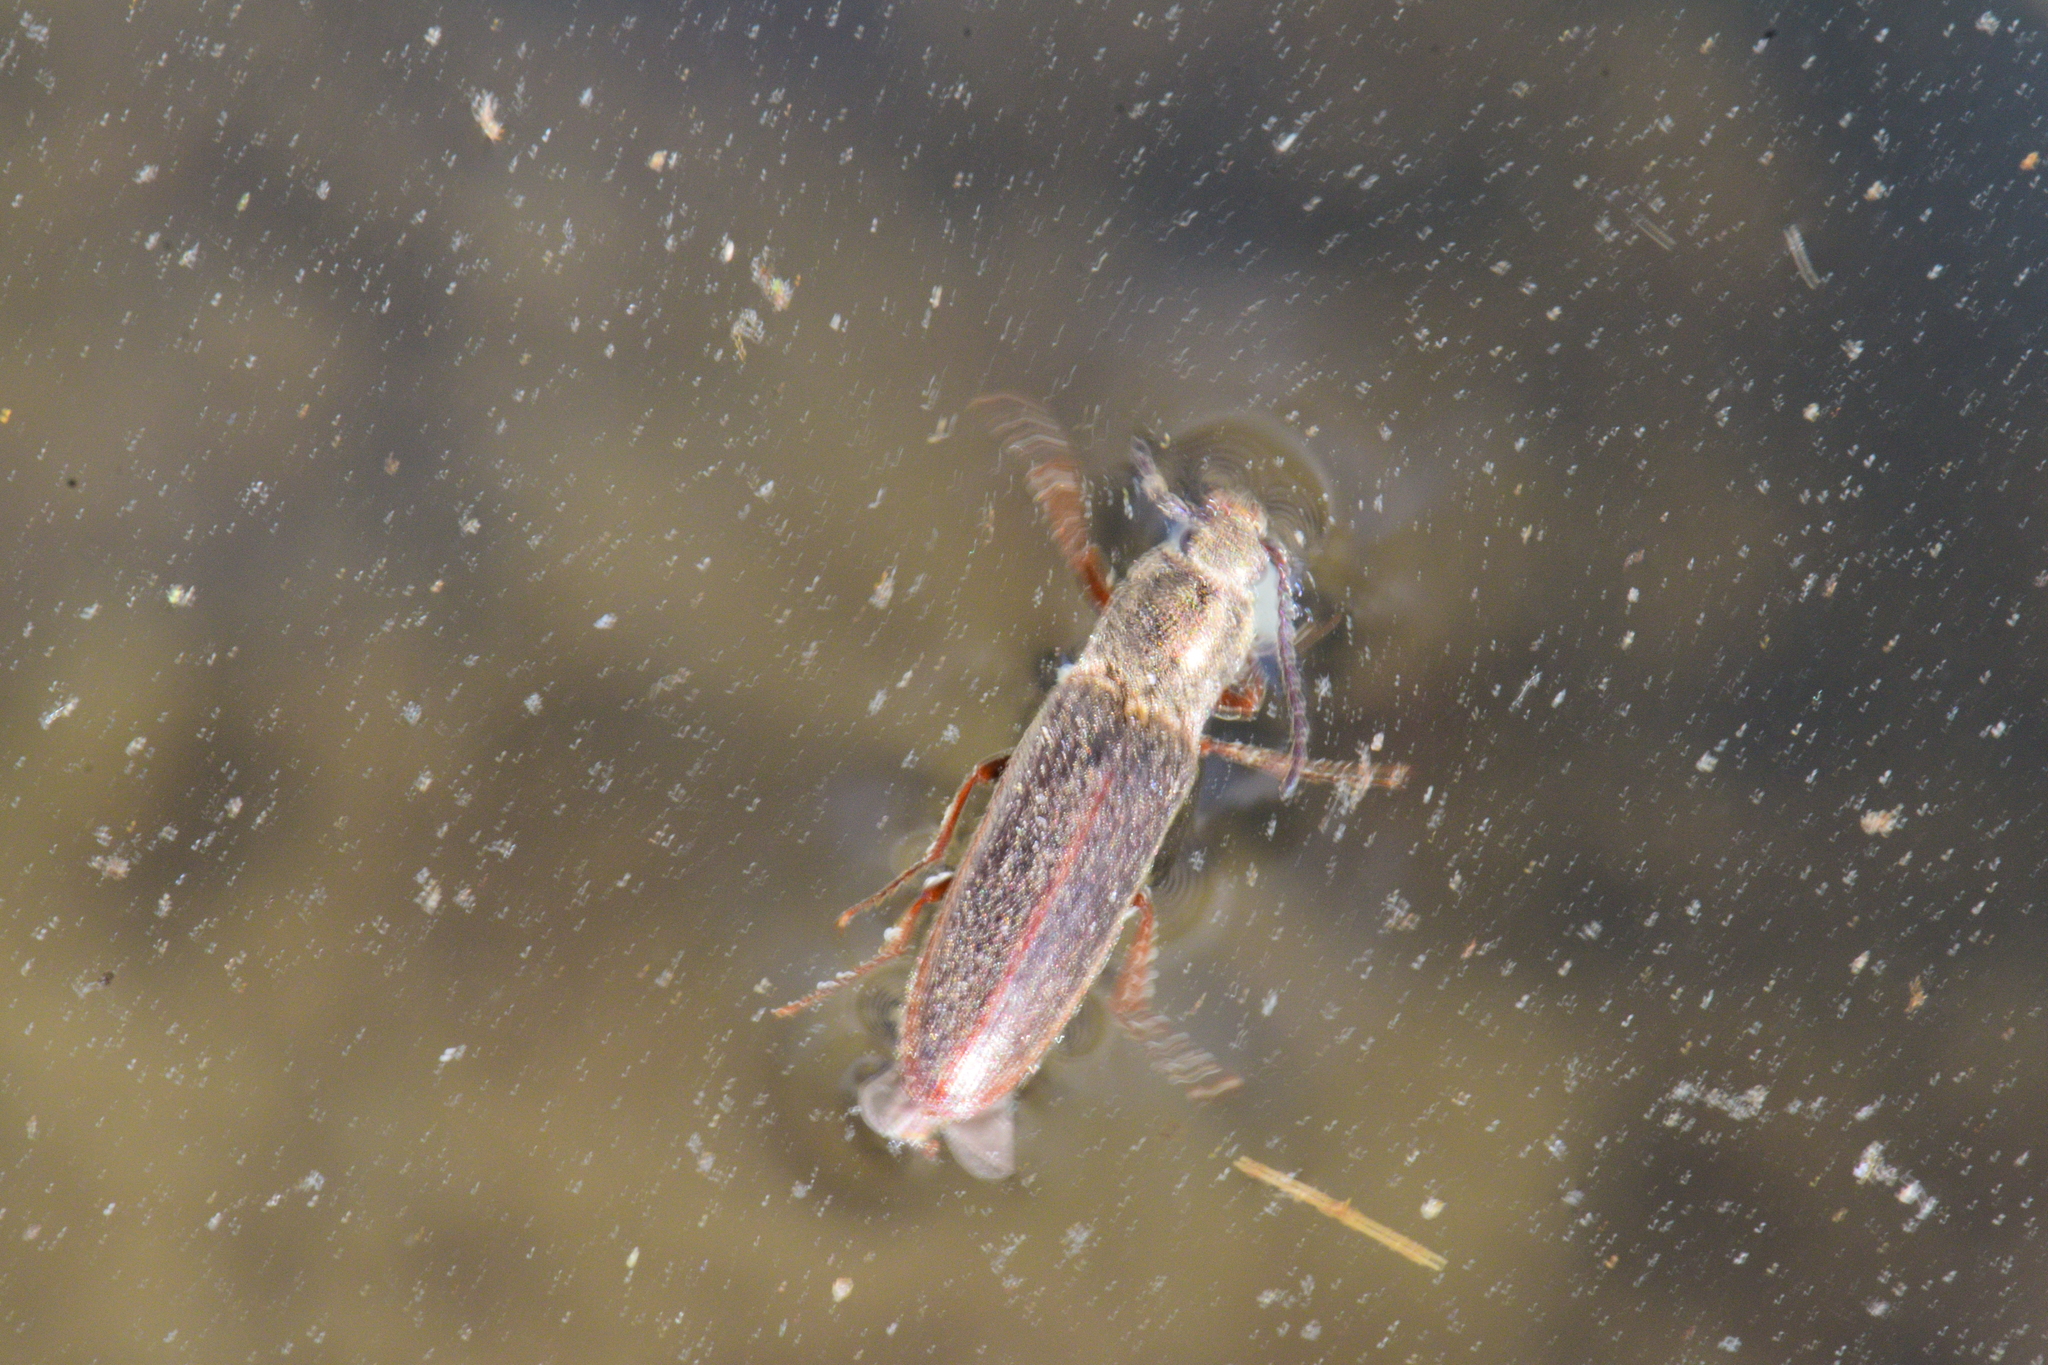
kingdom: Animalia
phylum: Arthropoda
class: Insecta
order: Coleoptera
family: Elateridae
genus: Sylvanelater
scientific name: Sylvanelater cylindriformis
